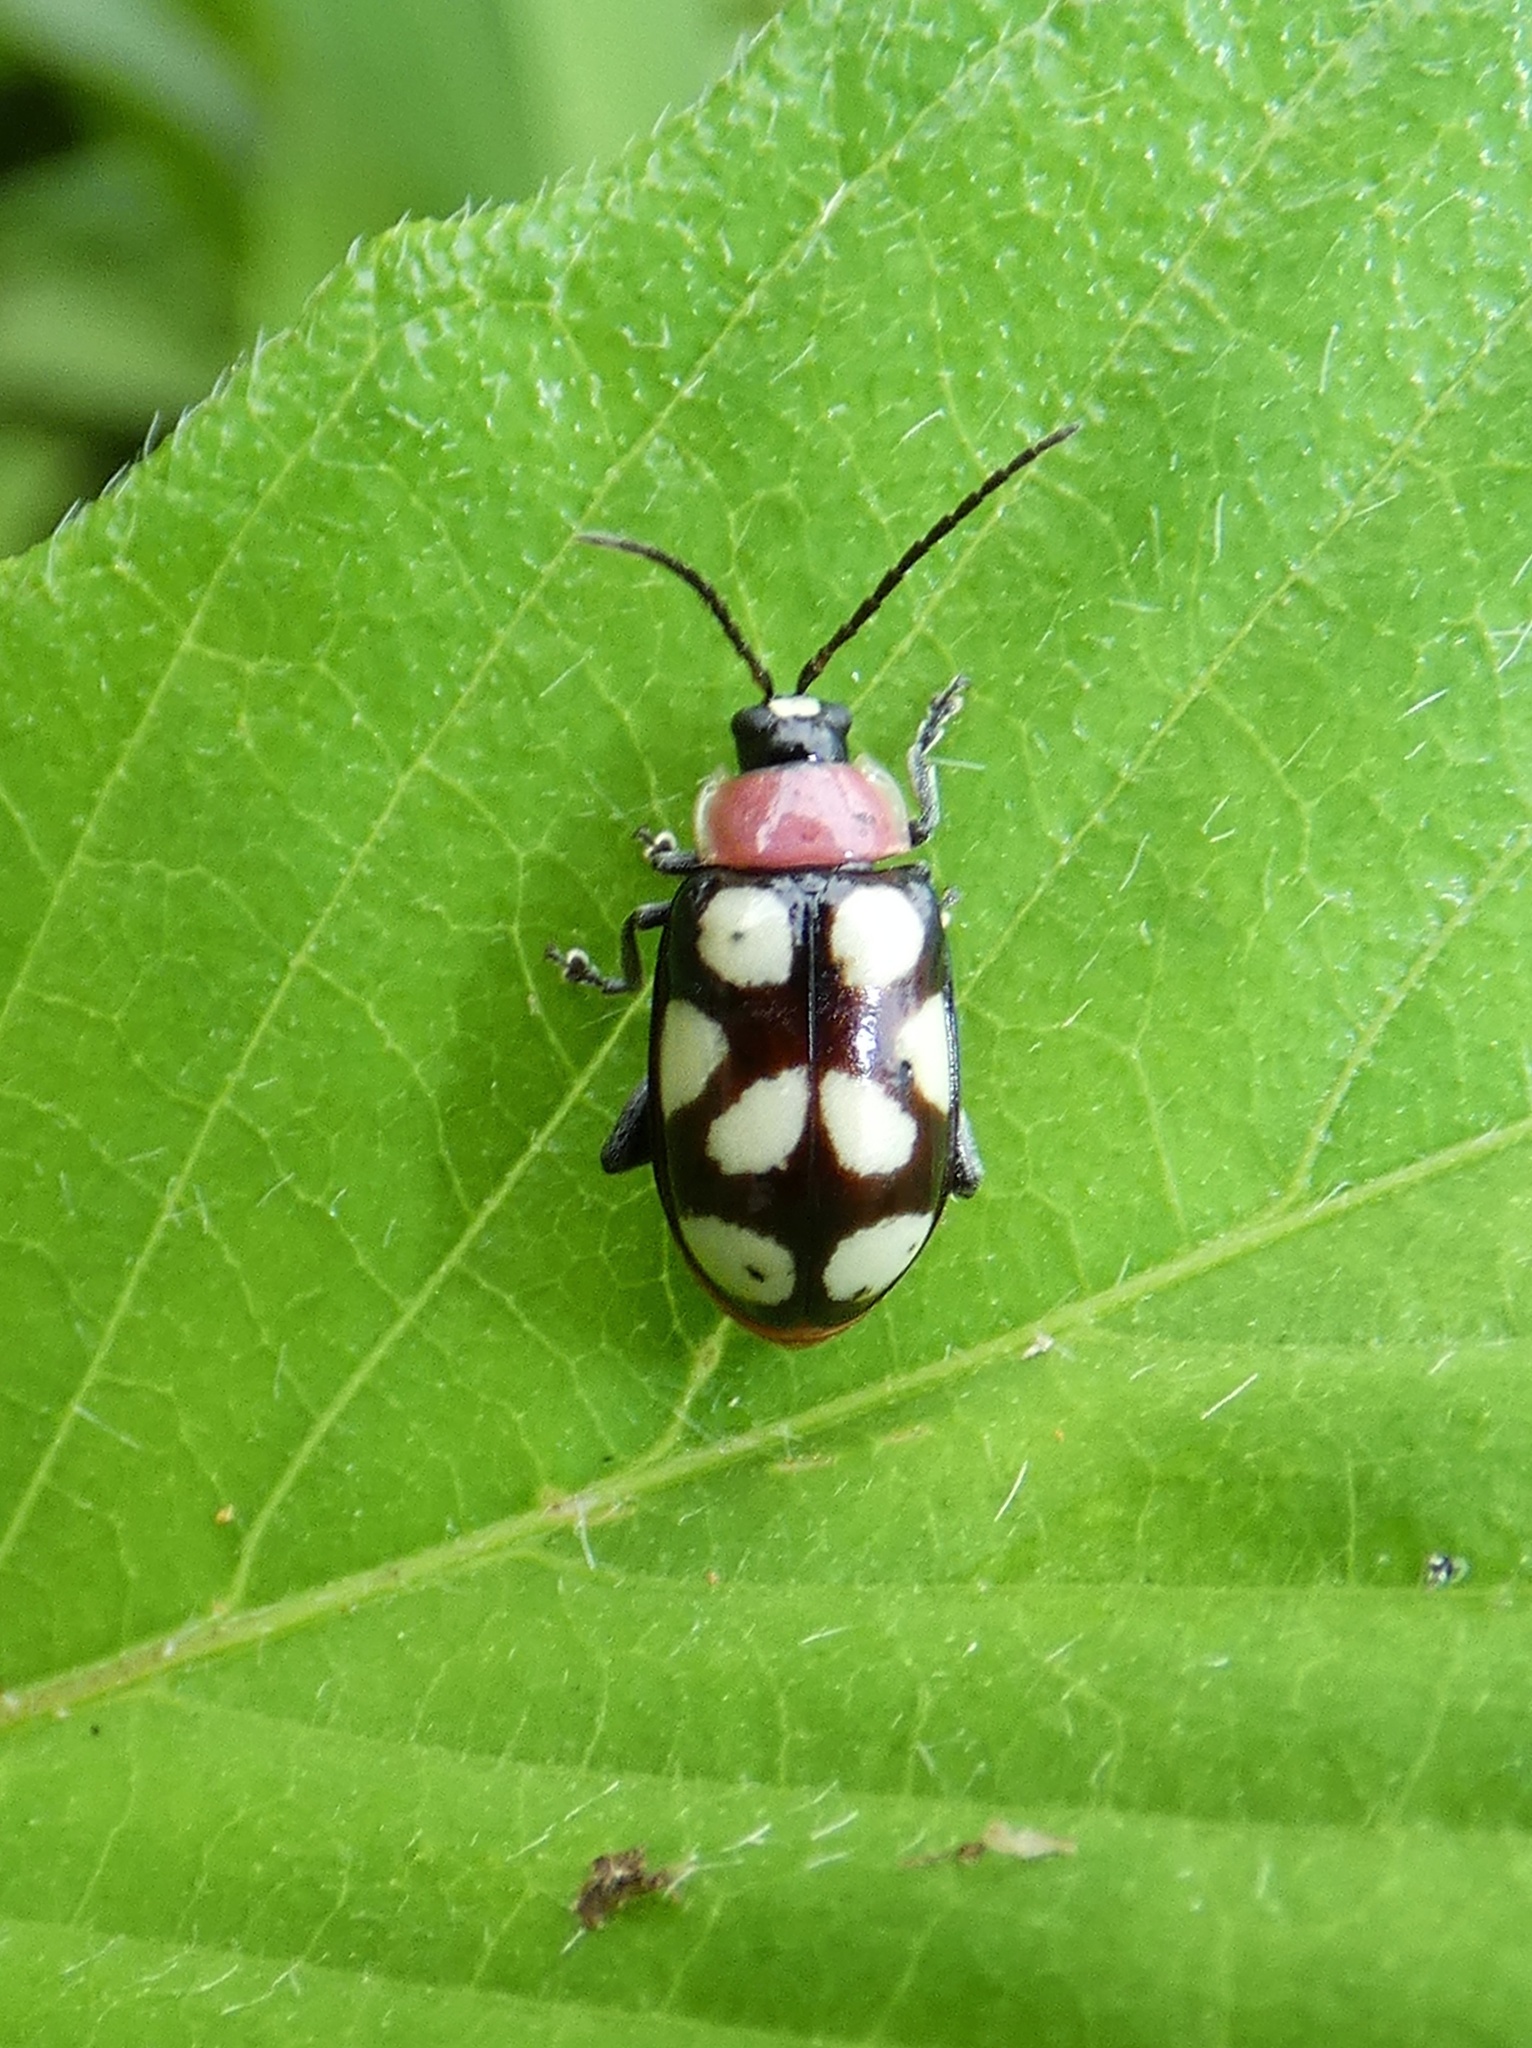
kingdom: Animalia
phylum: Arthropoda
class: Insecta
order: Coleoptera
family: Chrysomelidae
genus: Omophoita
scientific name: Omophoita aequinoctialis
